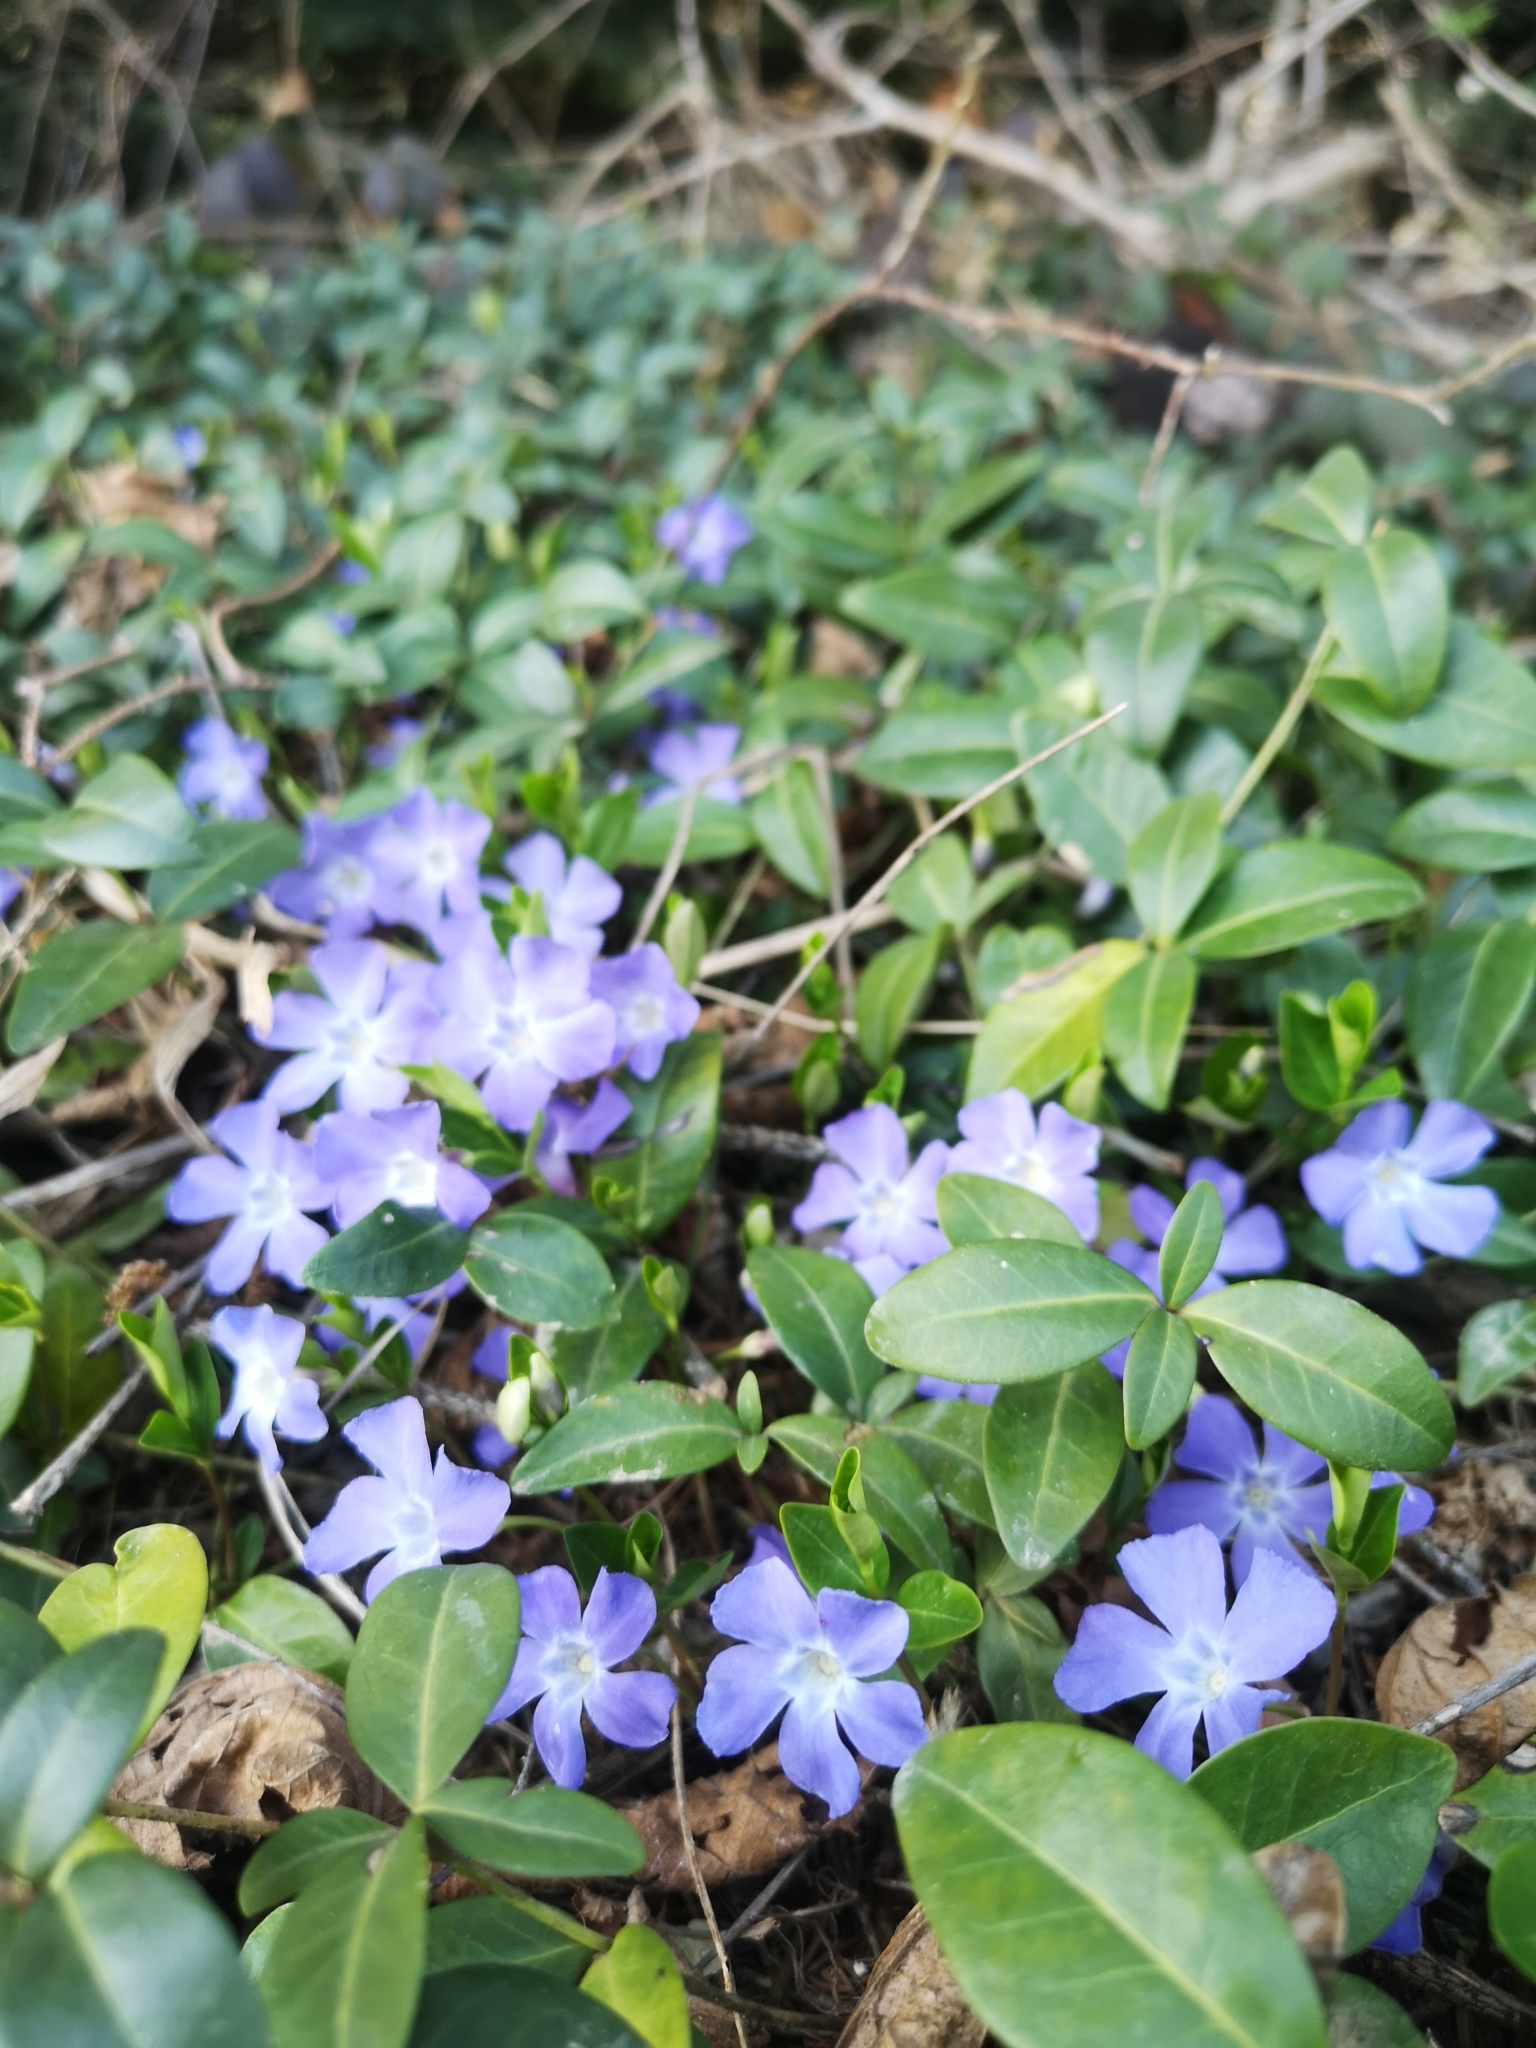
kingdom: Plantae
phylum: Tracheophyta
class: Magnoliopsida
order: Gentianales
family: Apocynaceae
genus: Vinca
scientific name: Vinca minor
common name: Lesser periwinkle
